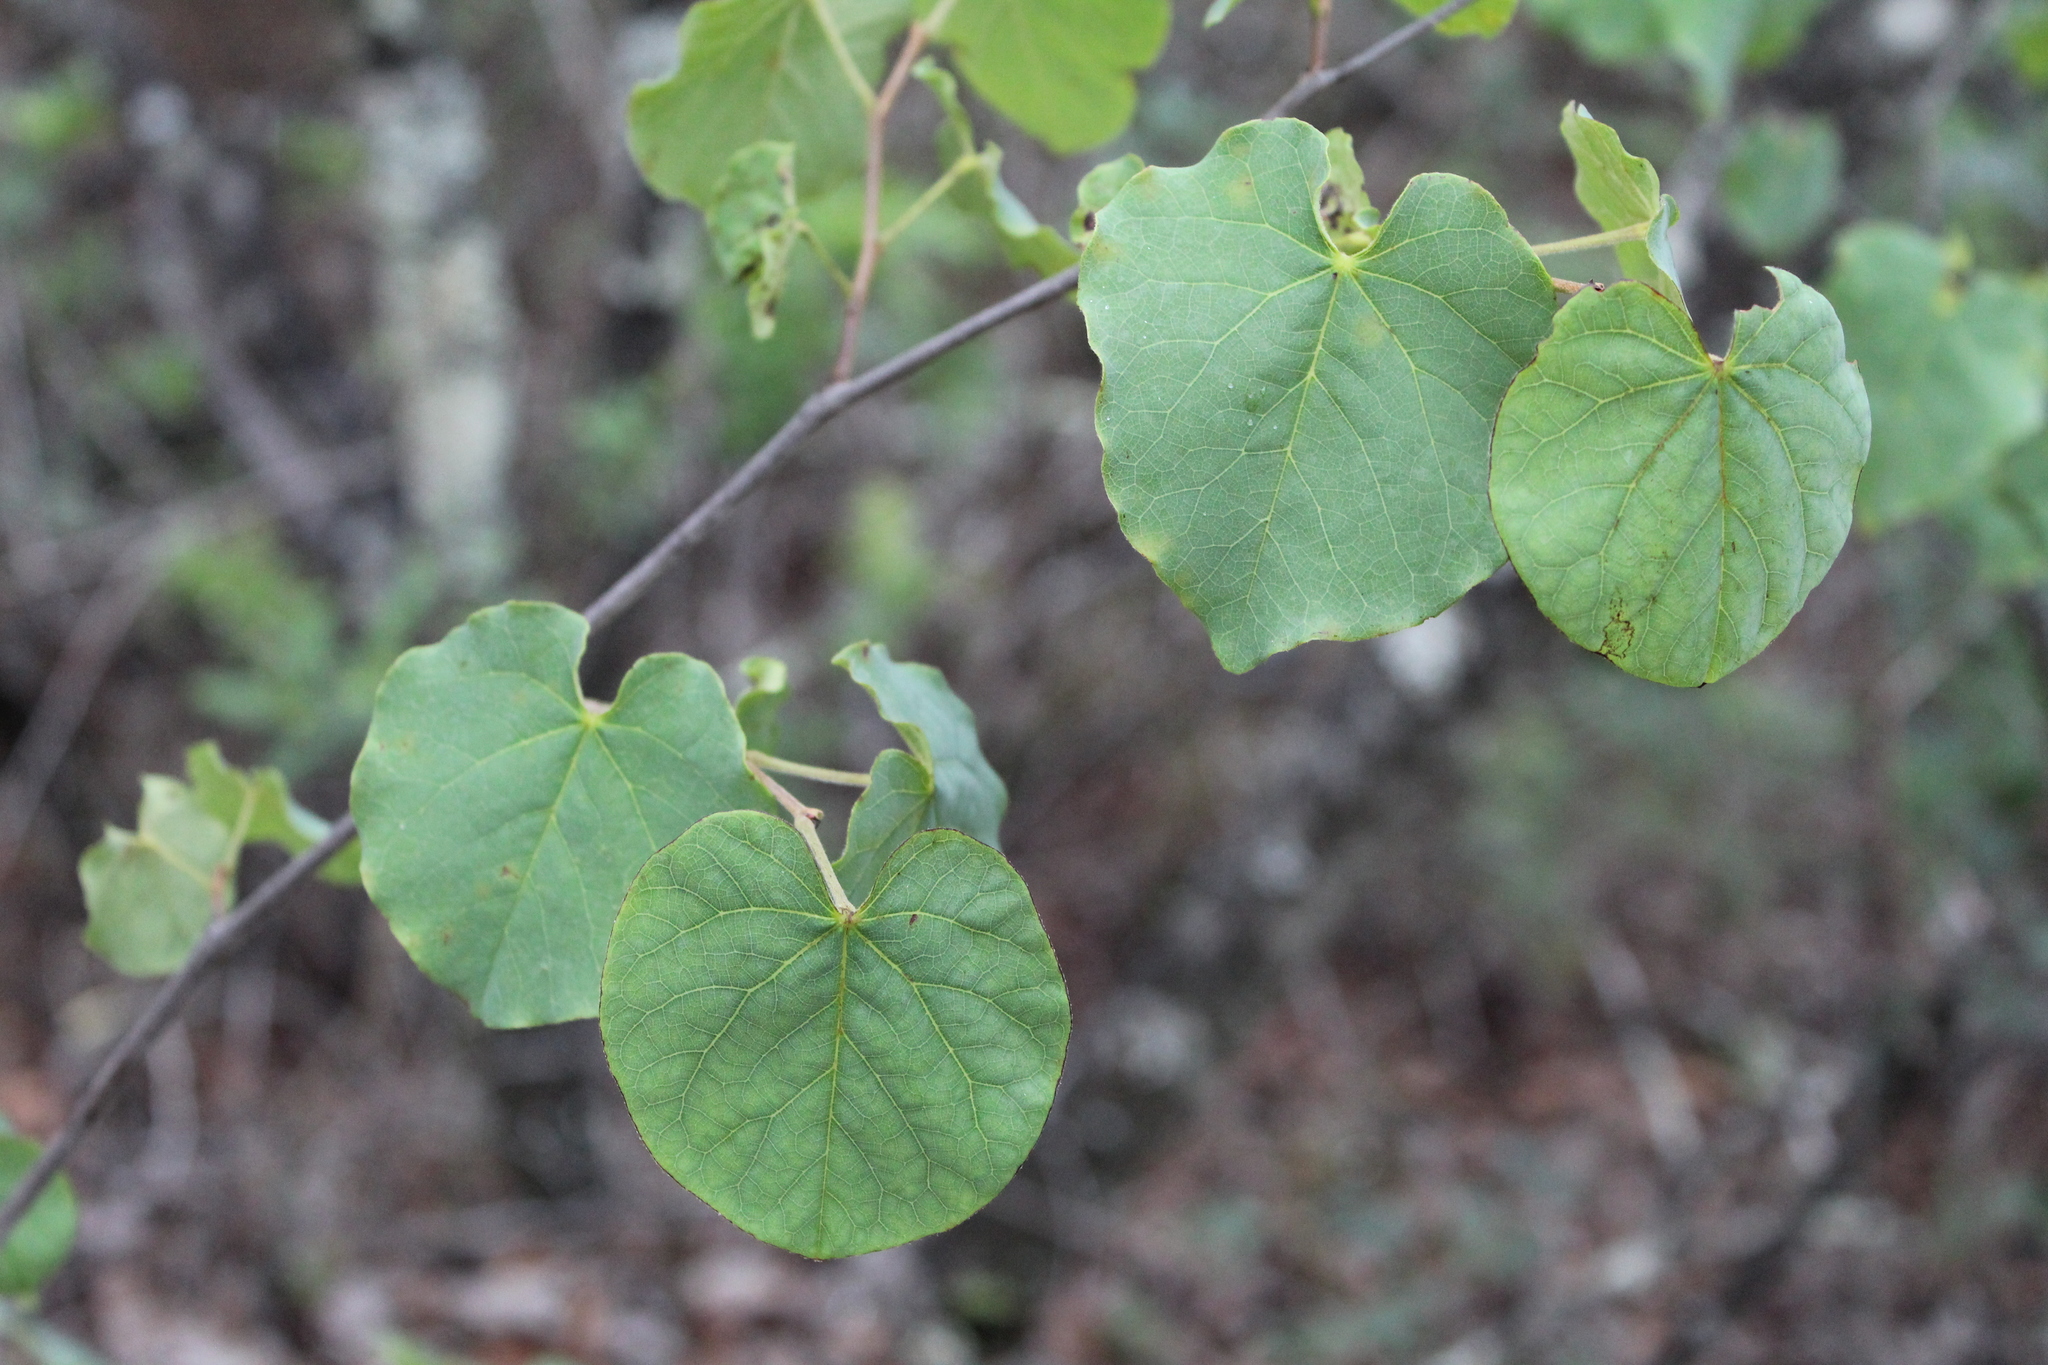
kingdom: Plantae
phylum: Tracheophyta
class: Magnoliopsida
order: Fabales
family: Fabaceae
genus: Cercis
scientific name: Cercis canadensis
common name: Eastern redbud
